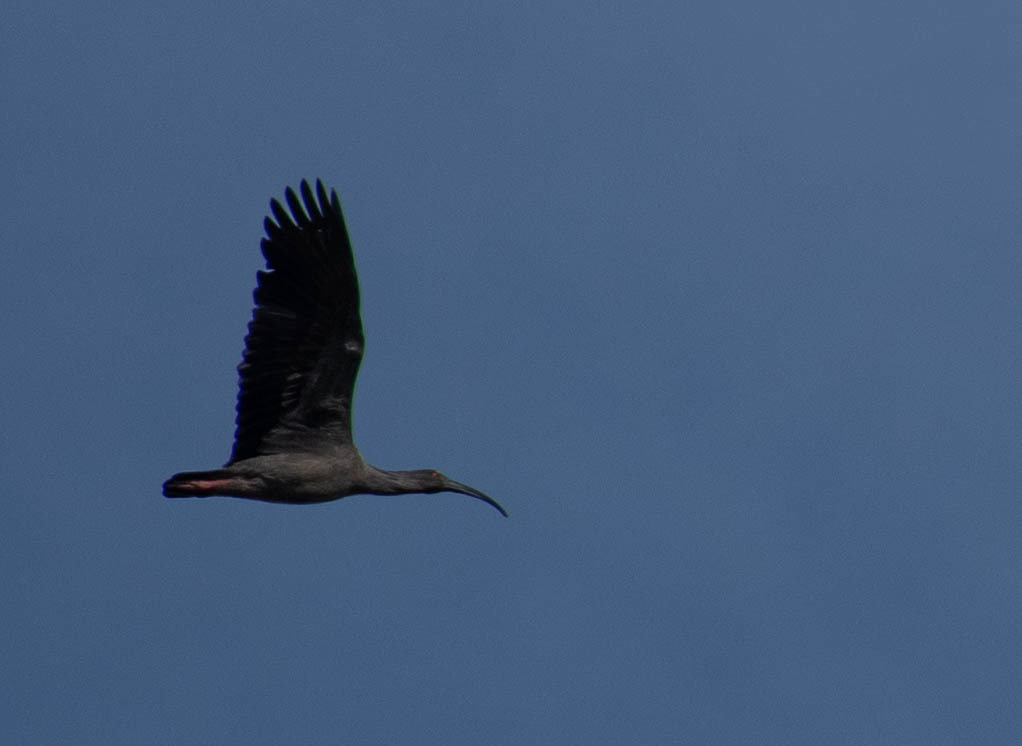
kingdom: Animalia
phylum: Chordata
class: Aves
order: Pelecaniformes
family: Threskiornithidae
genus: Theristicus
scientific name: Theristicus caerulescens
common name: Plumbeous ibis
